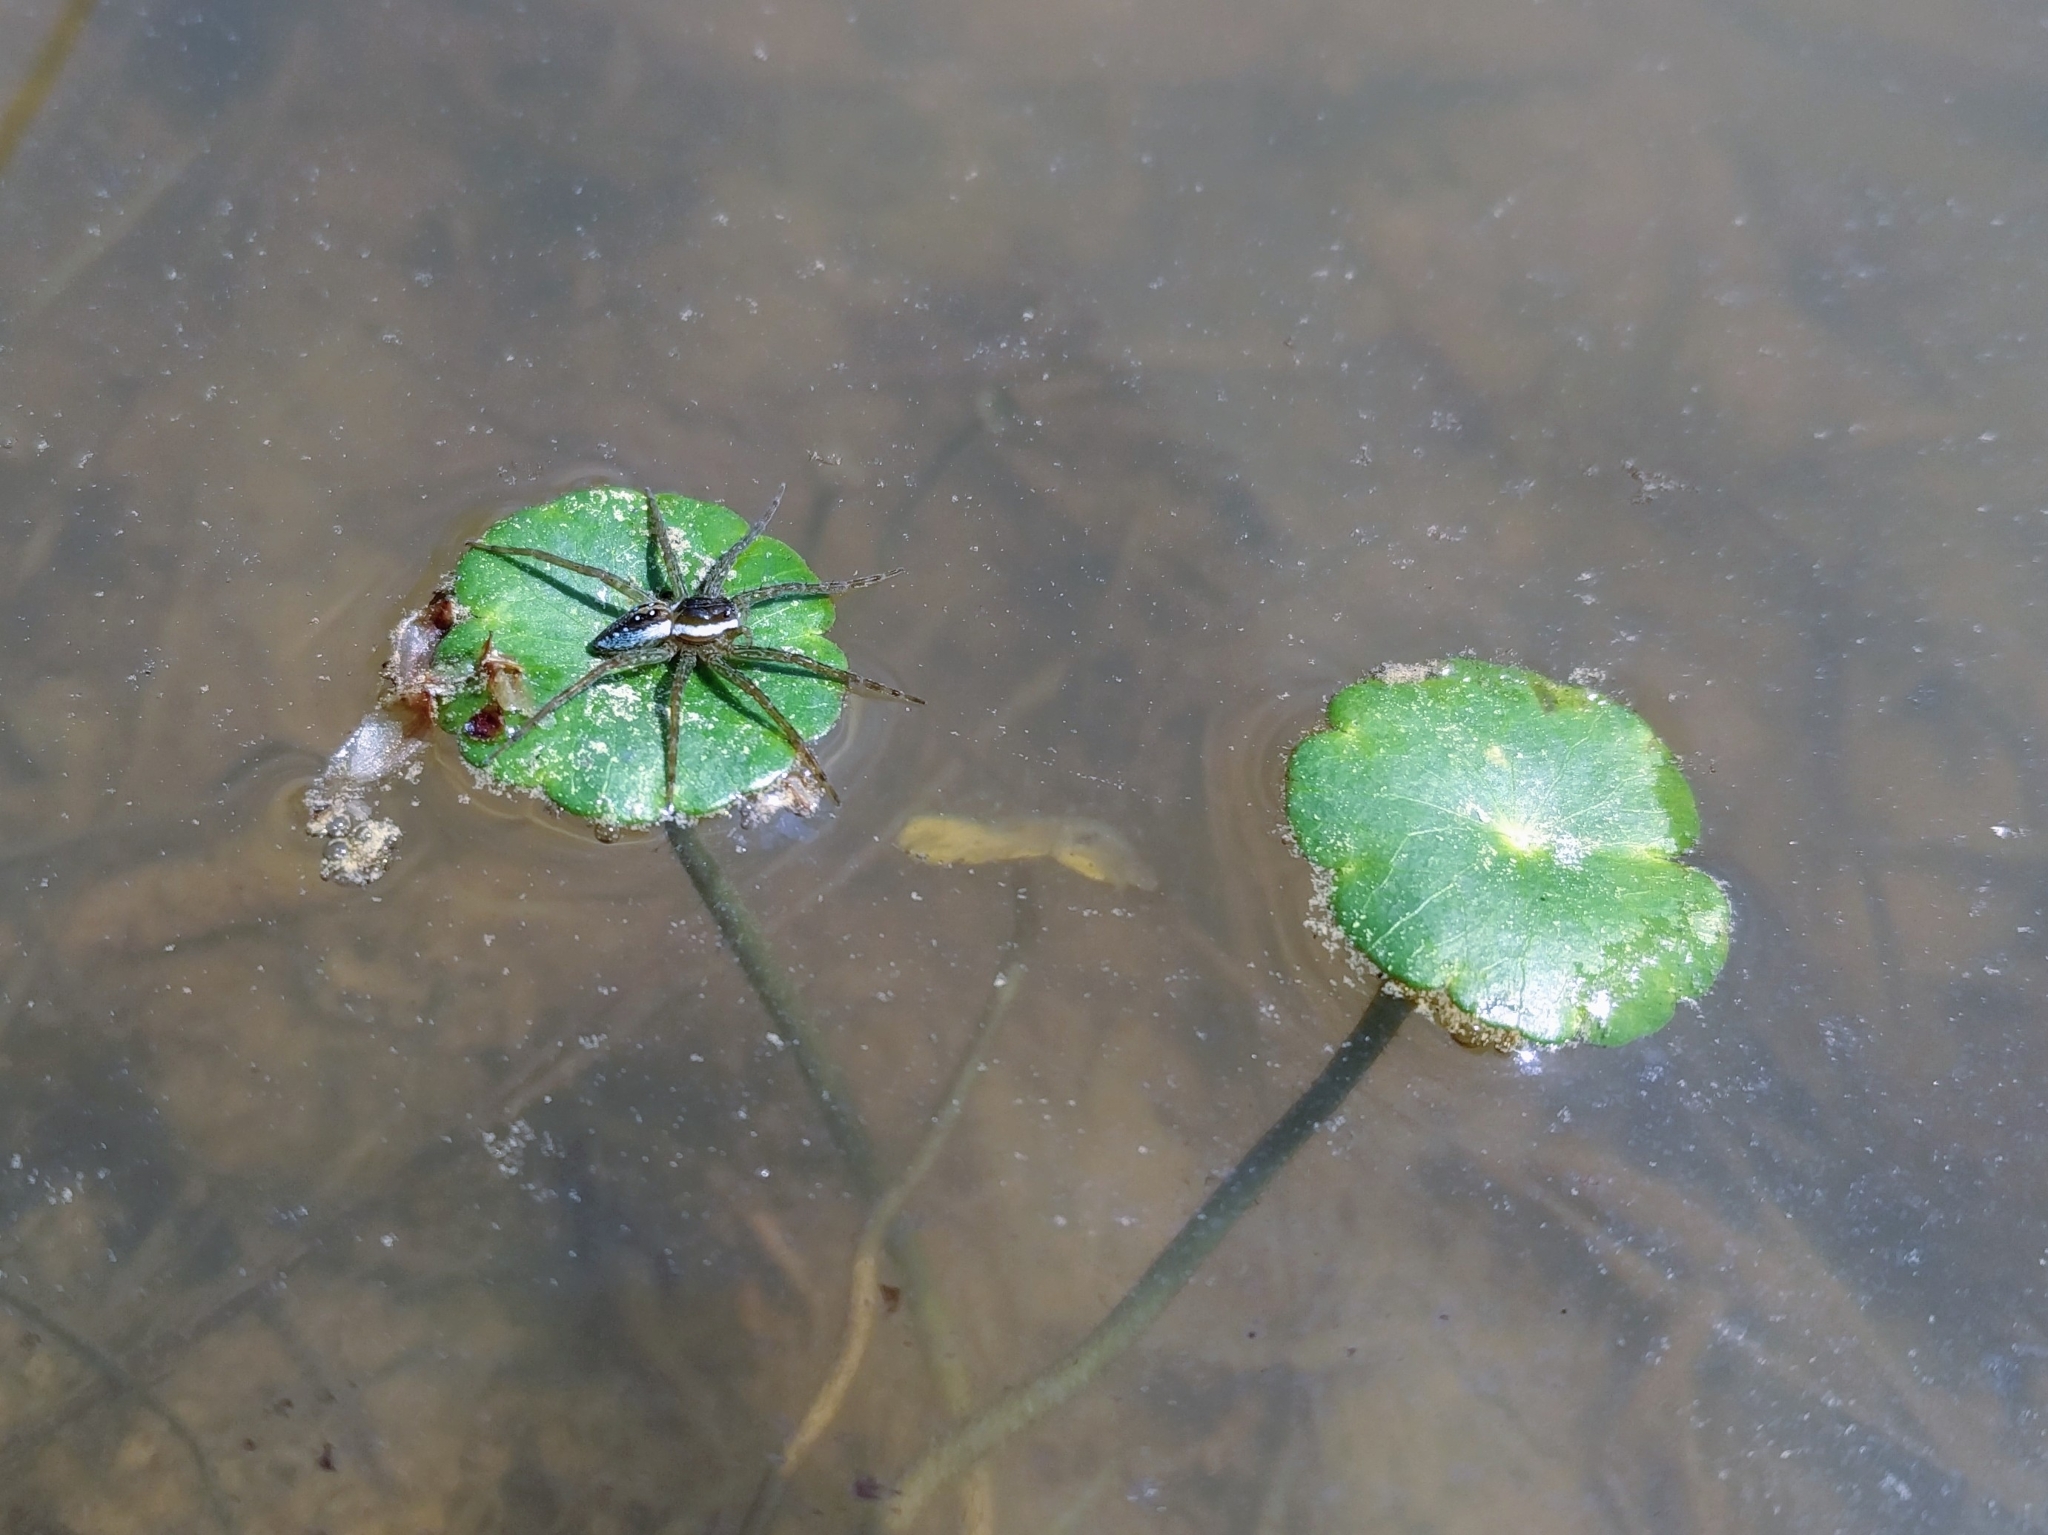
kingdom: Animalia
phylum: Arthropoda
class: Arachnida
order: Araneae
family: Pisauridae
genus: Dolomedes
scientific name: Dolomedes triton
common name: Six-spotted fishing spider
